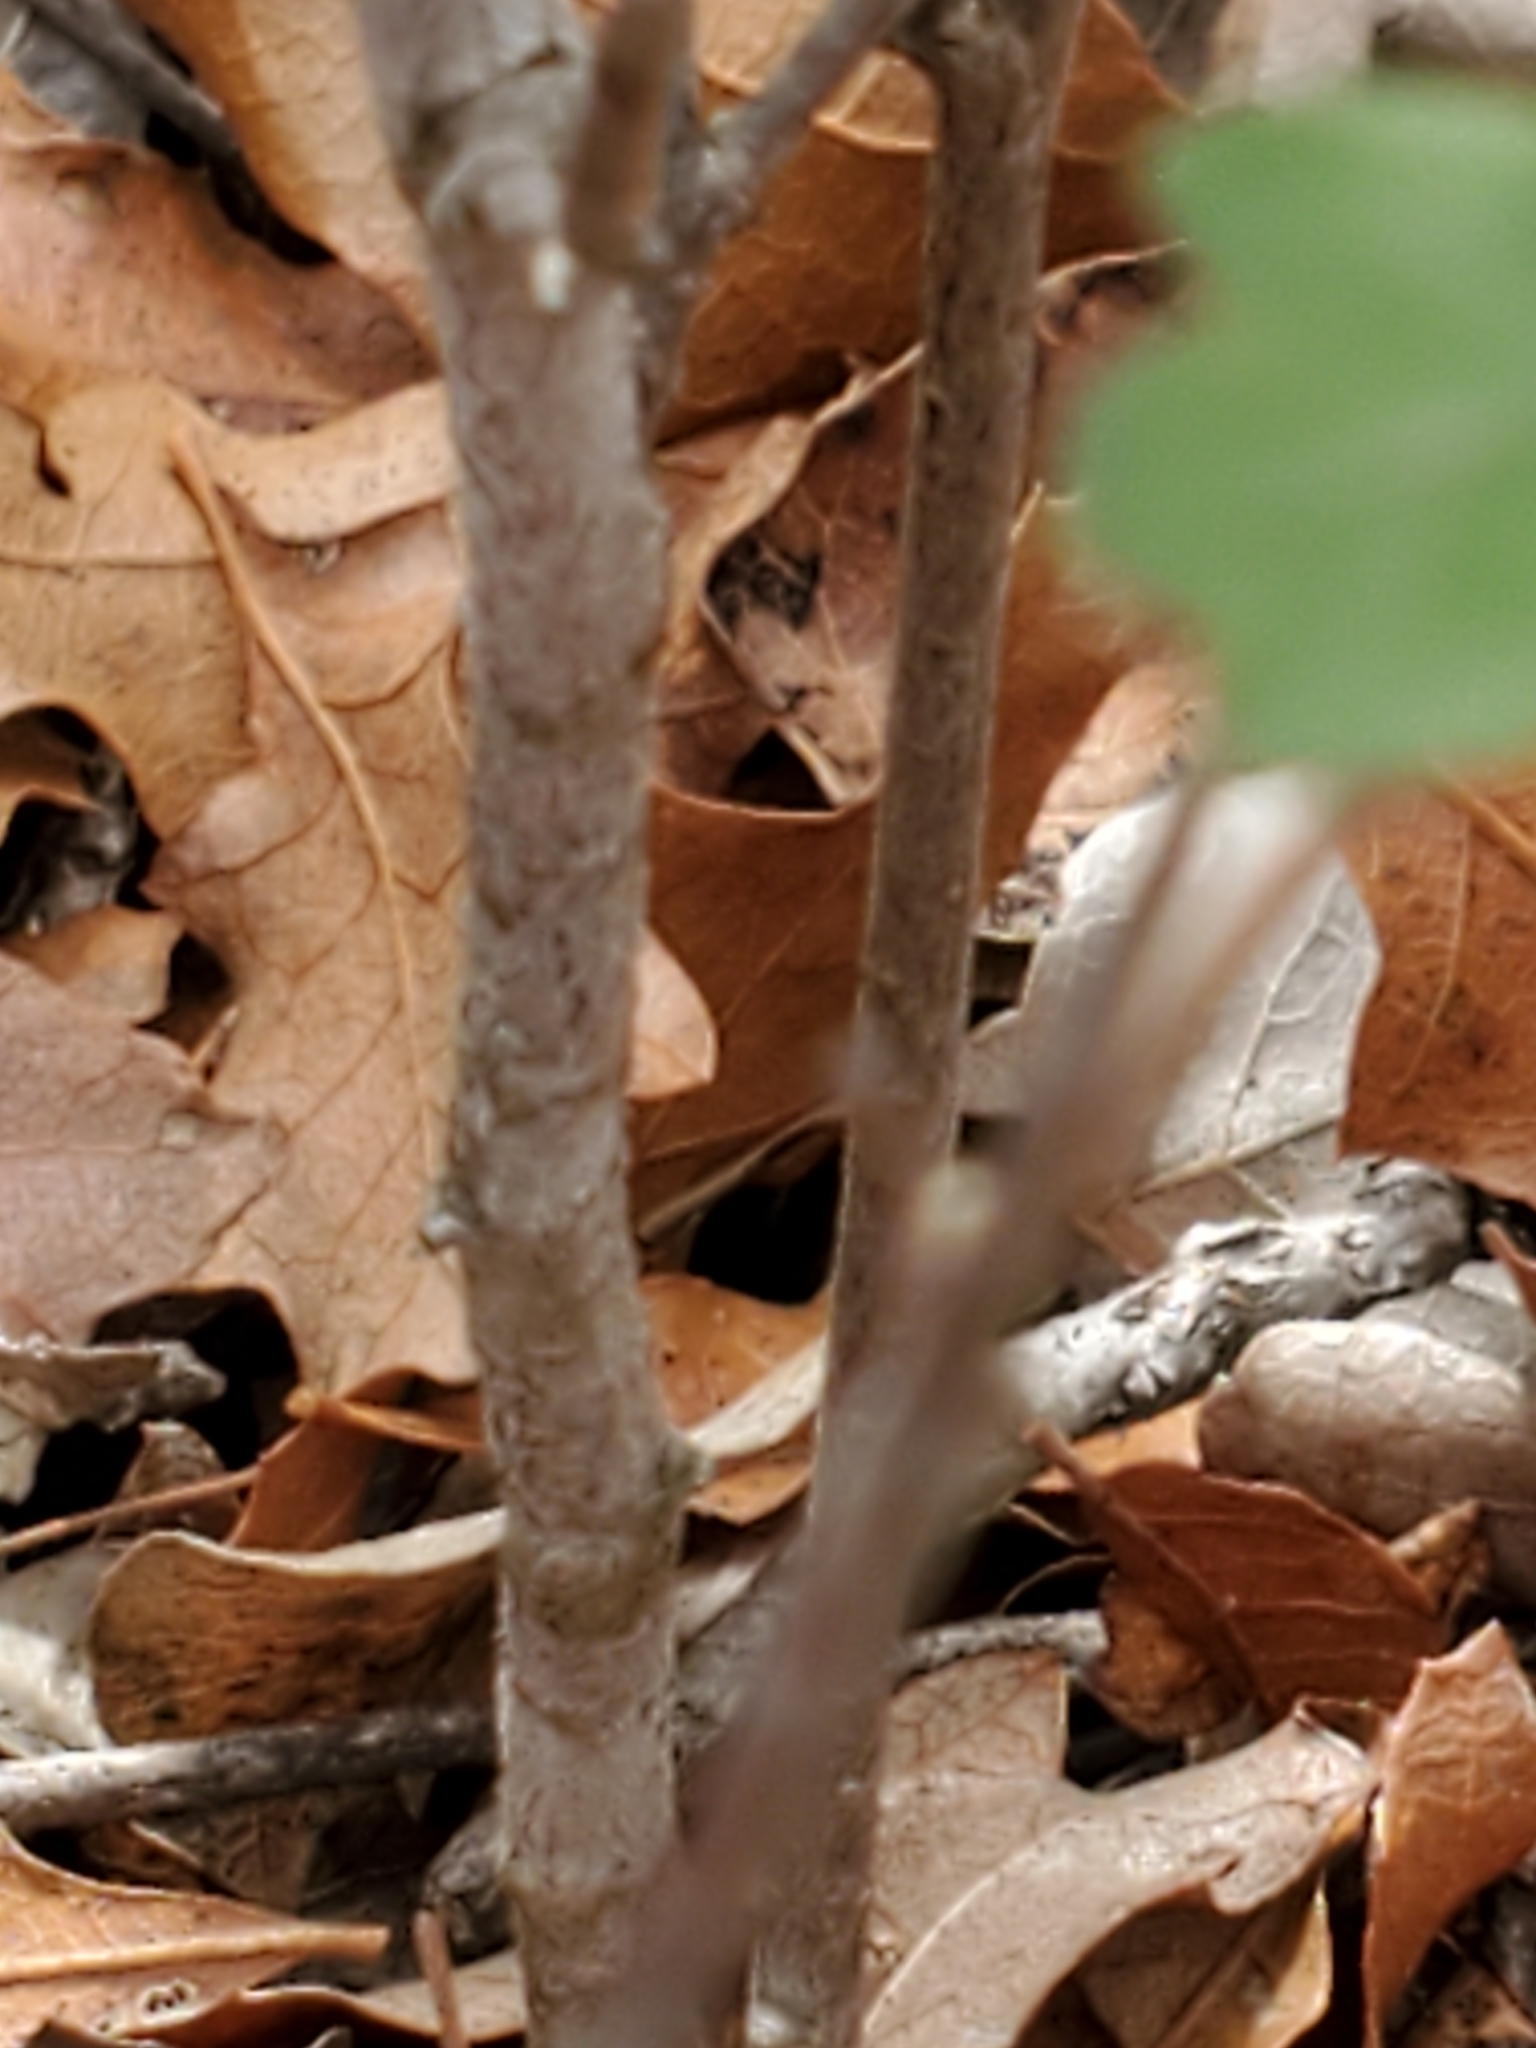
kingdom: Plantae
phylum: Tracheophyta
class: Magnoliopsida
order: Sapindales
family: Anacardiaceae
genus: Rhus
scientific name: Rhus trilobata
